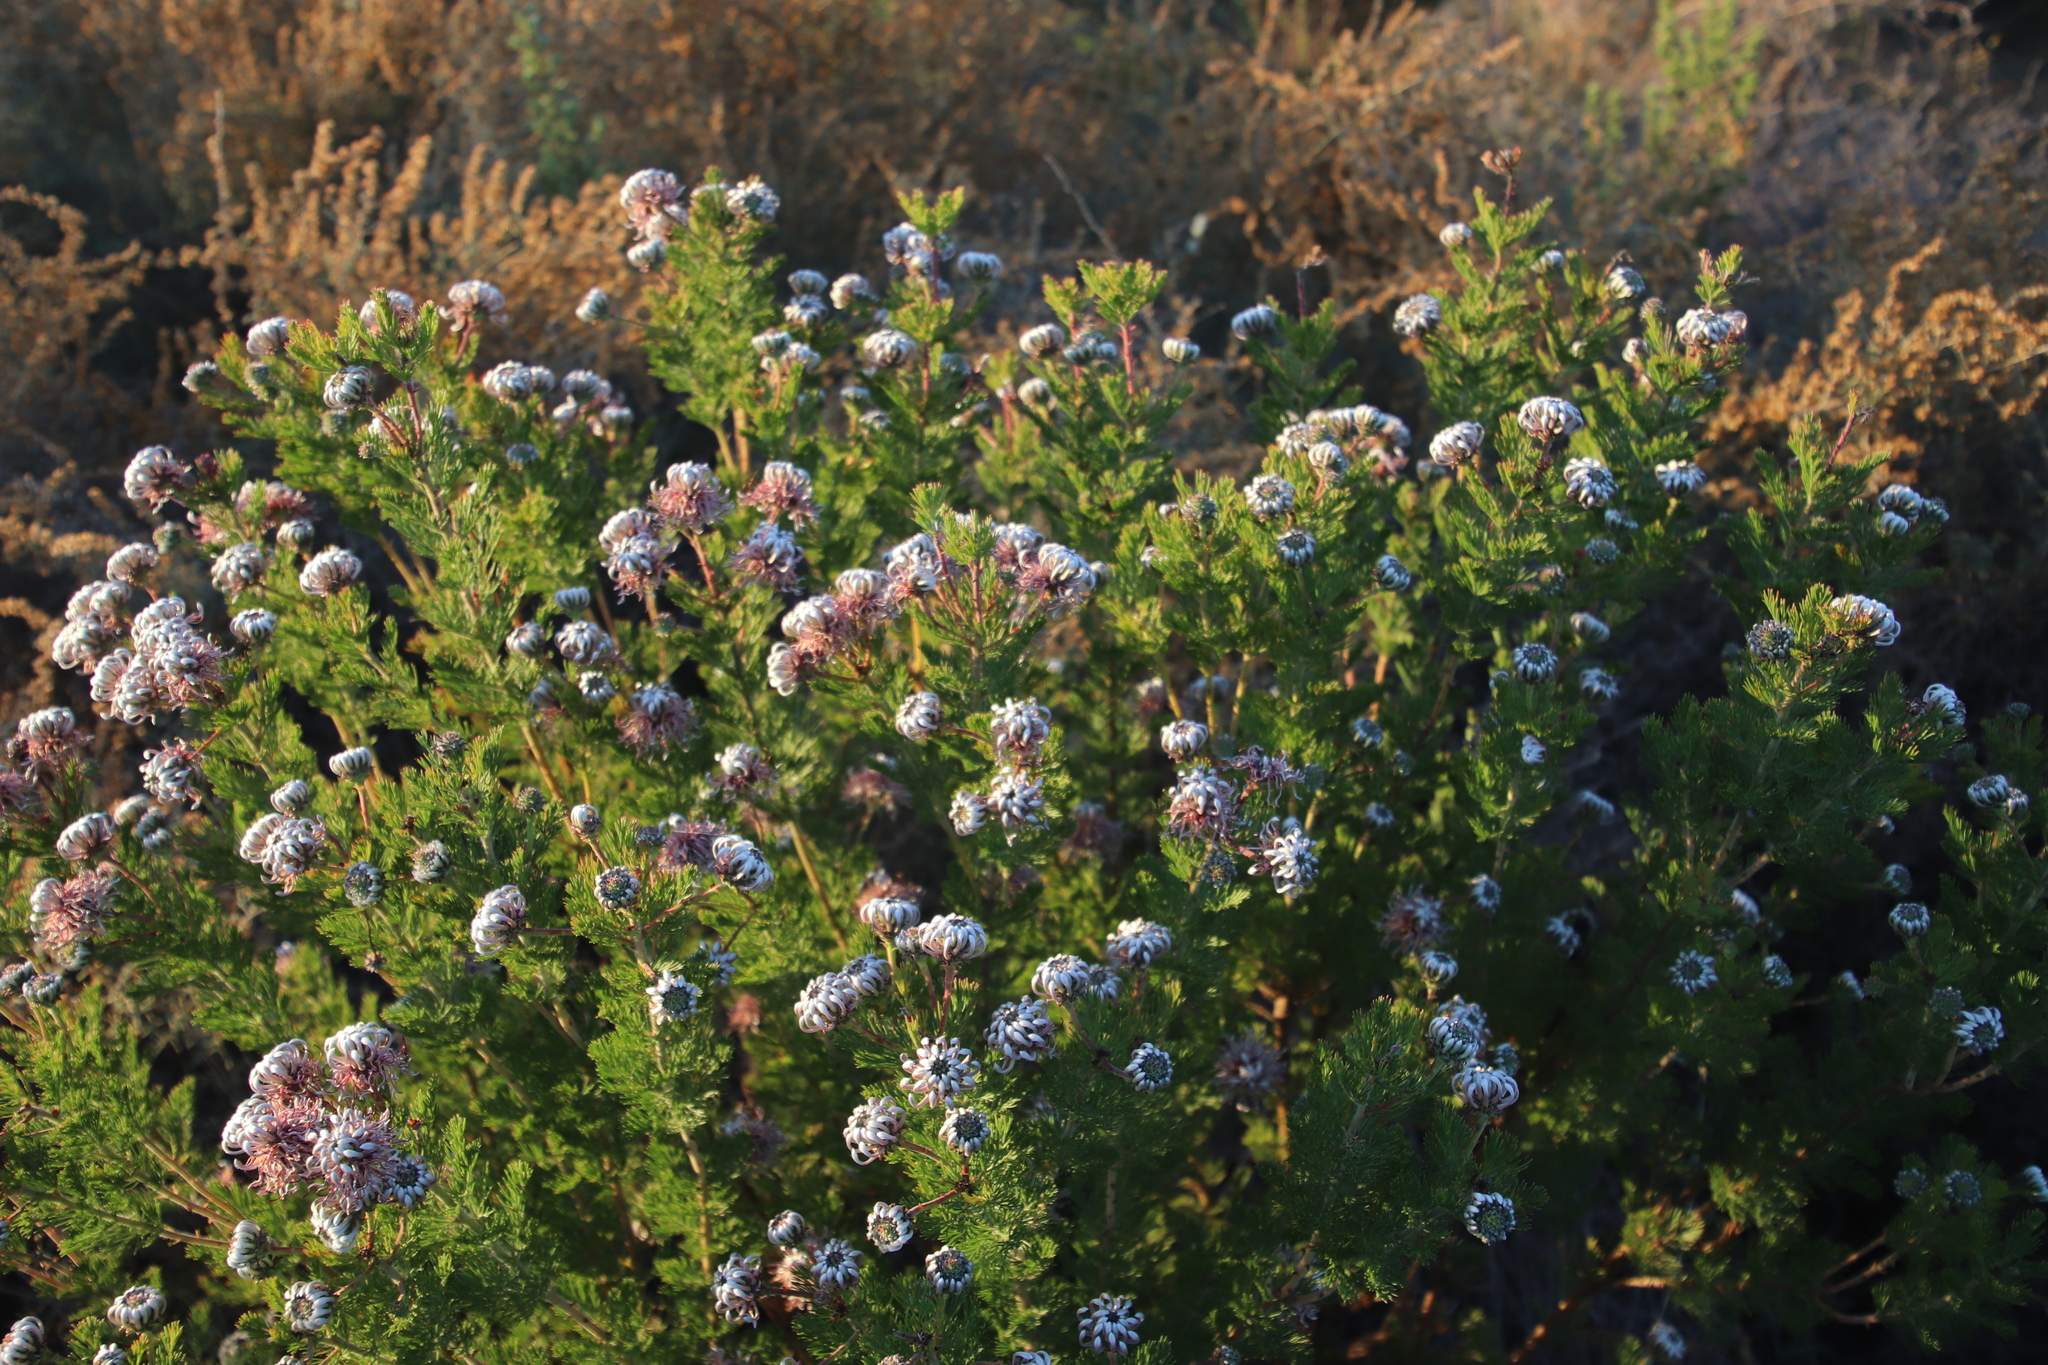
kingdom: Plantae
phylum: Tracheophyta
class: Magnoliopsida
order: Proteales
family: Proteaceae
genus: Serruria
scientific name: Serruria pedunculata
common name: Fan-leaf spiderhead
